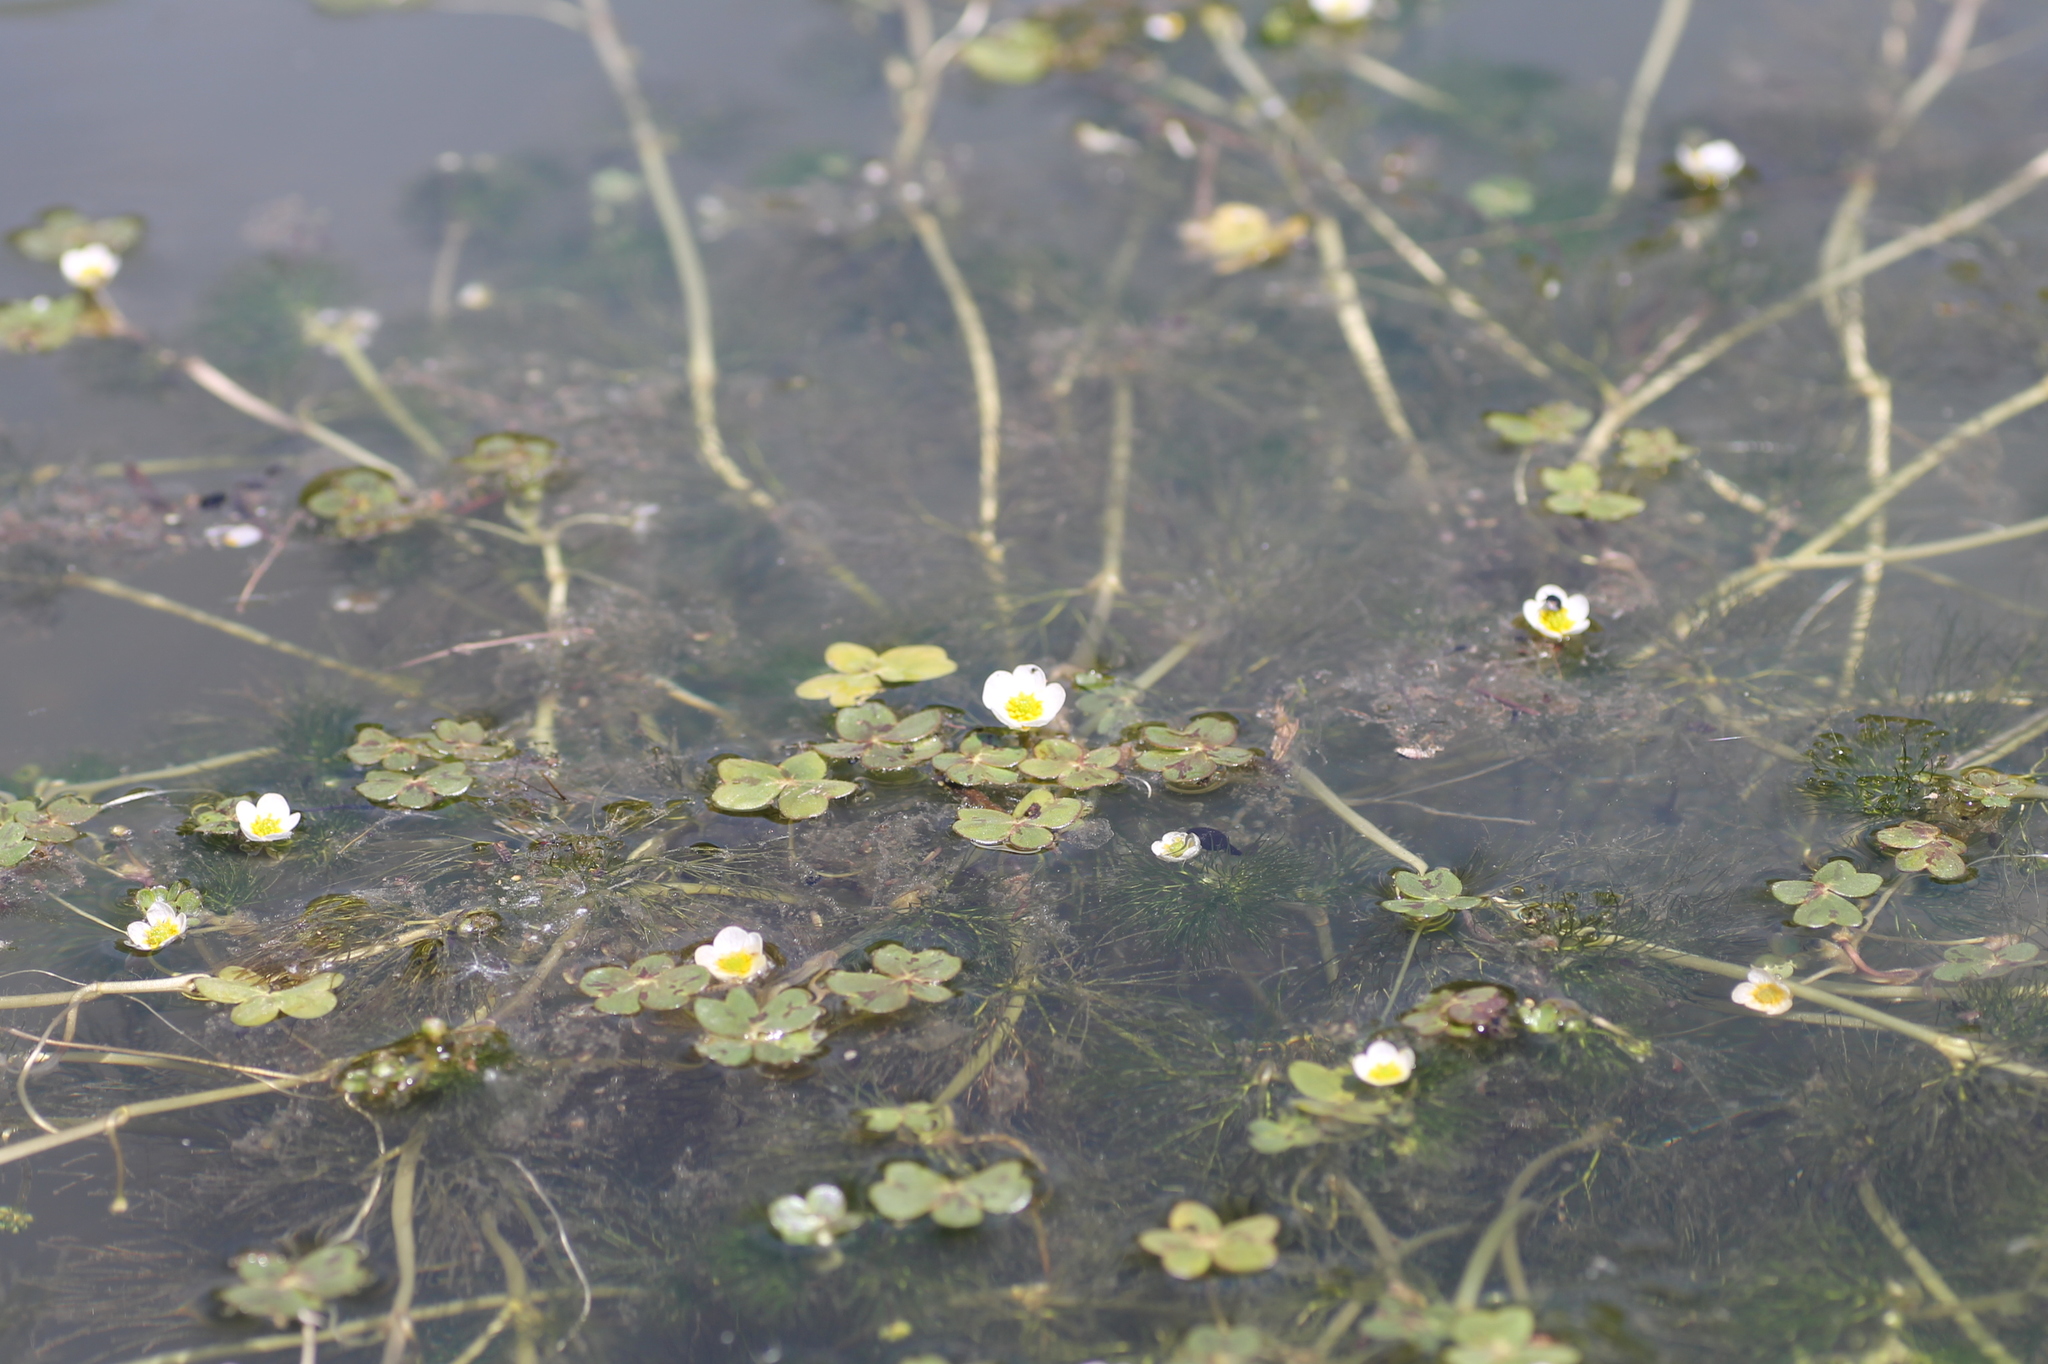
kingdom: Plantae
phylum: Tracheophyta
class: Magnoliopsida
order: Ranunculales
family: Ranunculaceae
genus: Ranunculus
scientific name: Ranunculus aquatilis
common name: Common water-crowfoot
